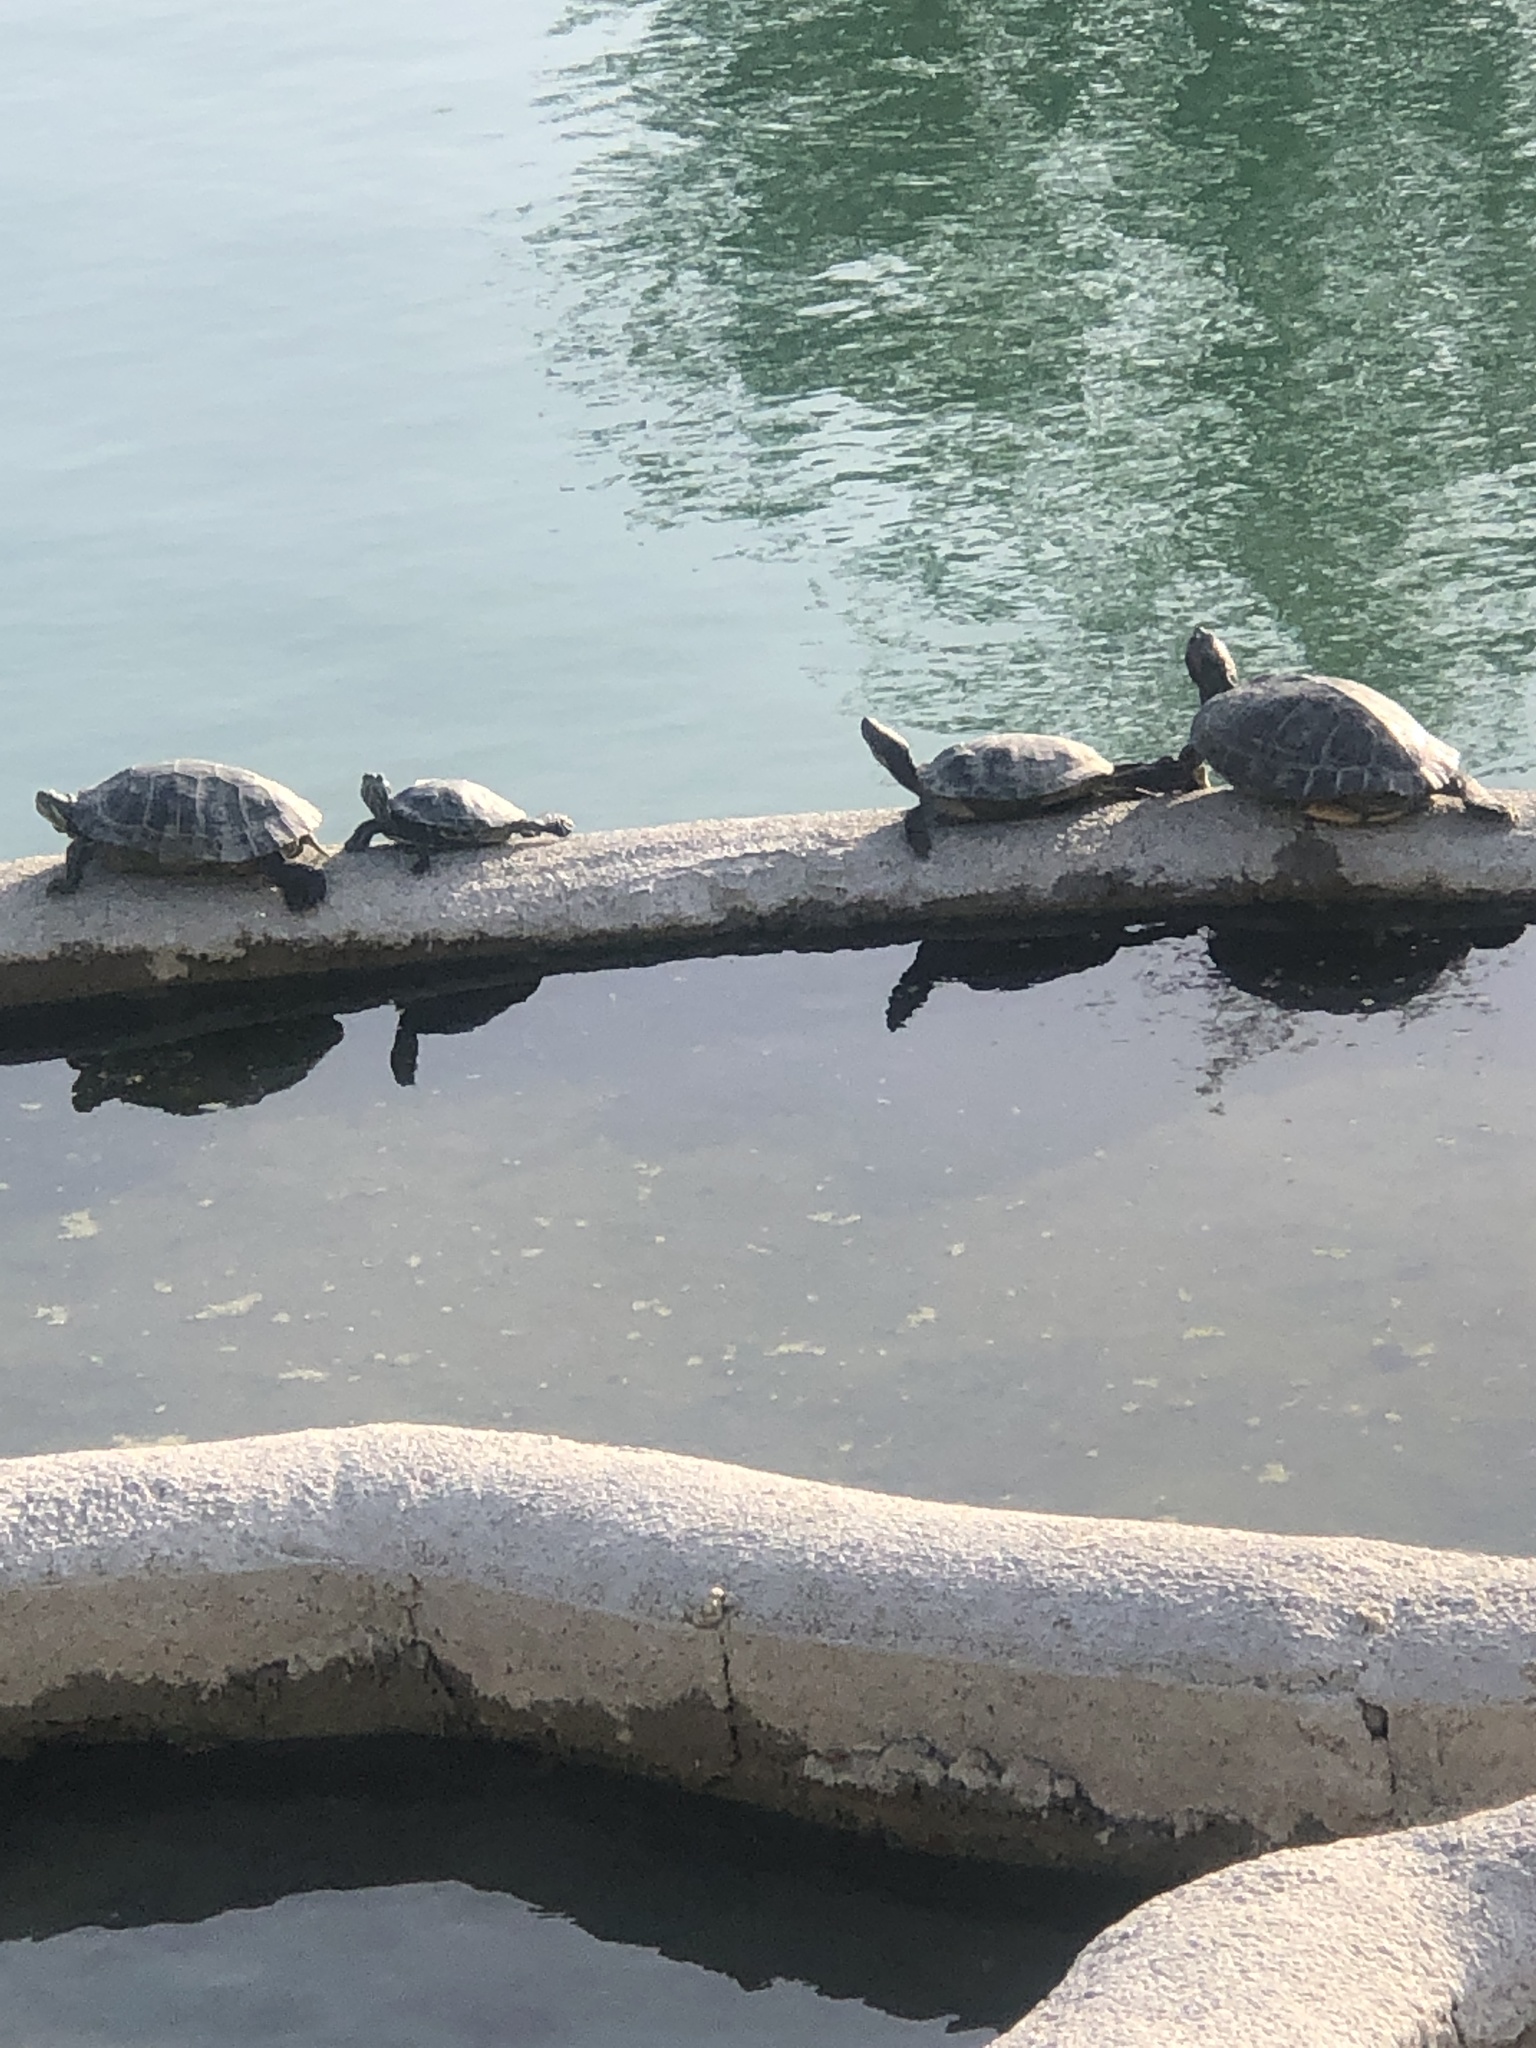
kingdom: Animalia
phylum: Chordata
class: Testudines
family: Emydidae
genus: Trachemys
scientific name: Trachemys scripta
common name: Slider
